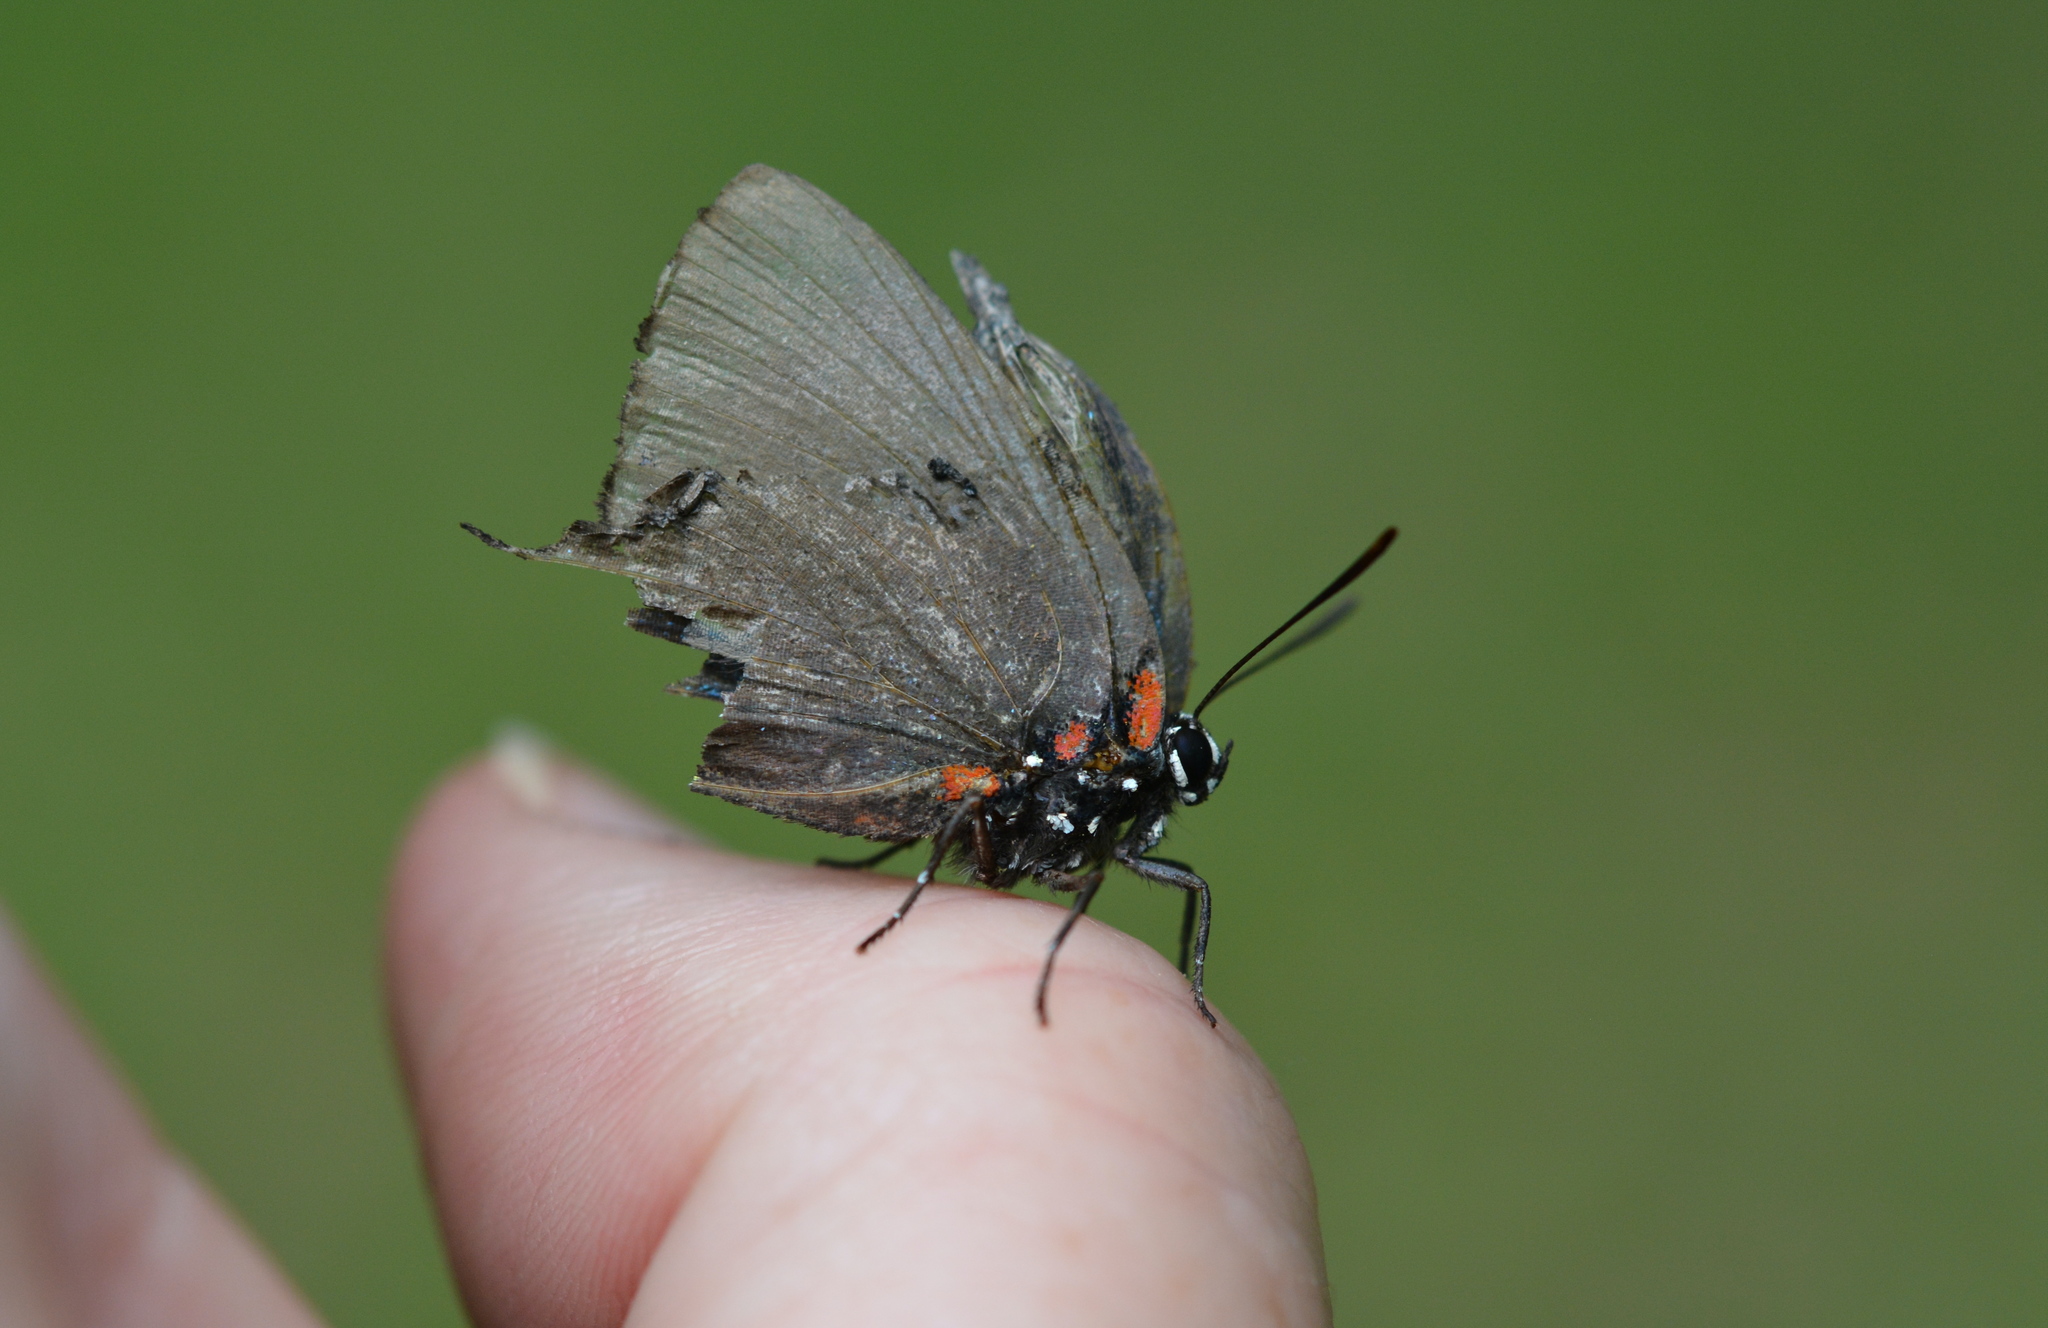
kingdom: Animalia
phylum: Arthropoda
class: Insecta
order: Lepidoptera
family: Lycaenidae
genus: Atlides
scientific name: Atlides halesus
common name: Great purple hairstreak
